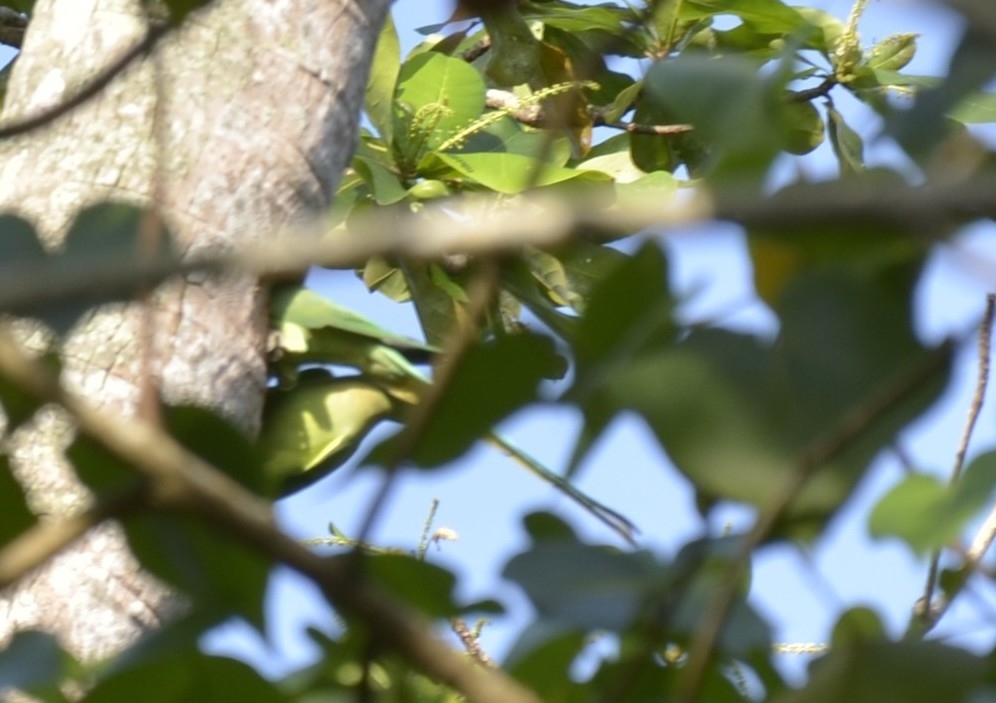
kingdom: Animalia
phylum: Chordata
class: Aves
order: Psittaciformes
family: Psittacidae
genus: Psittacula
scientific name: Psittacula krameri
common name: Rose-ringed parakeet
